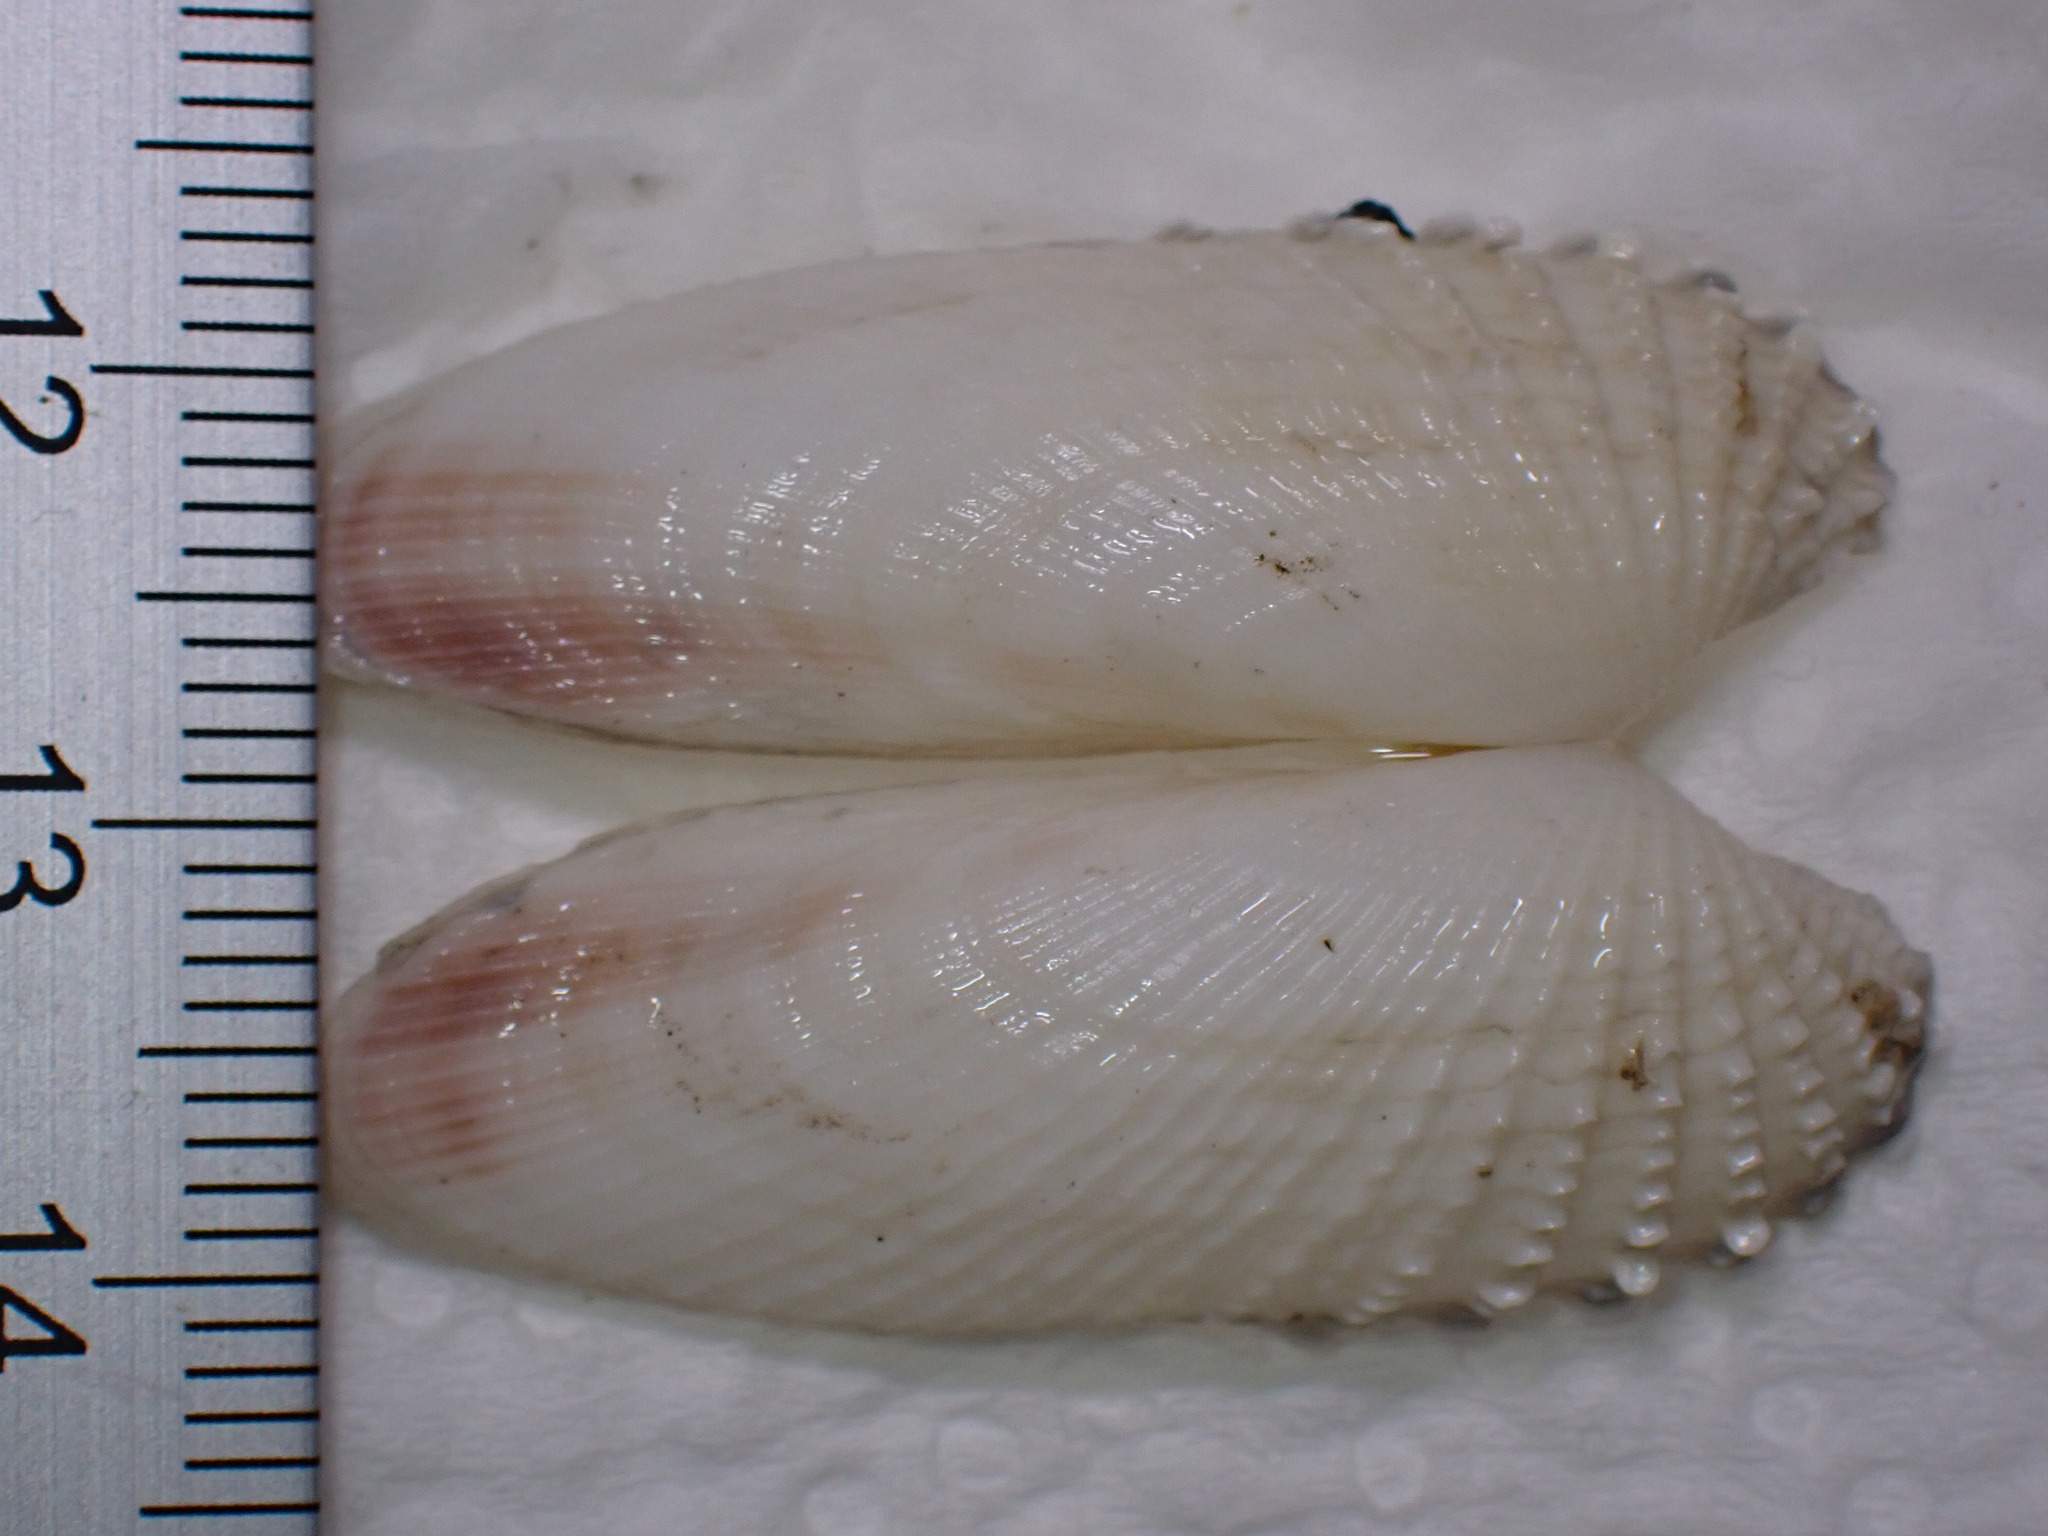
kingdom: Animalia
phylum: Mollusca
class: Bivalvia
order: Venerida
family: Veneridae
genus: Petricolaria
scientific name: Petricolaria pholadiformis
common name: American piddock
